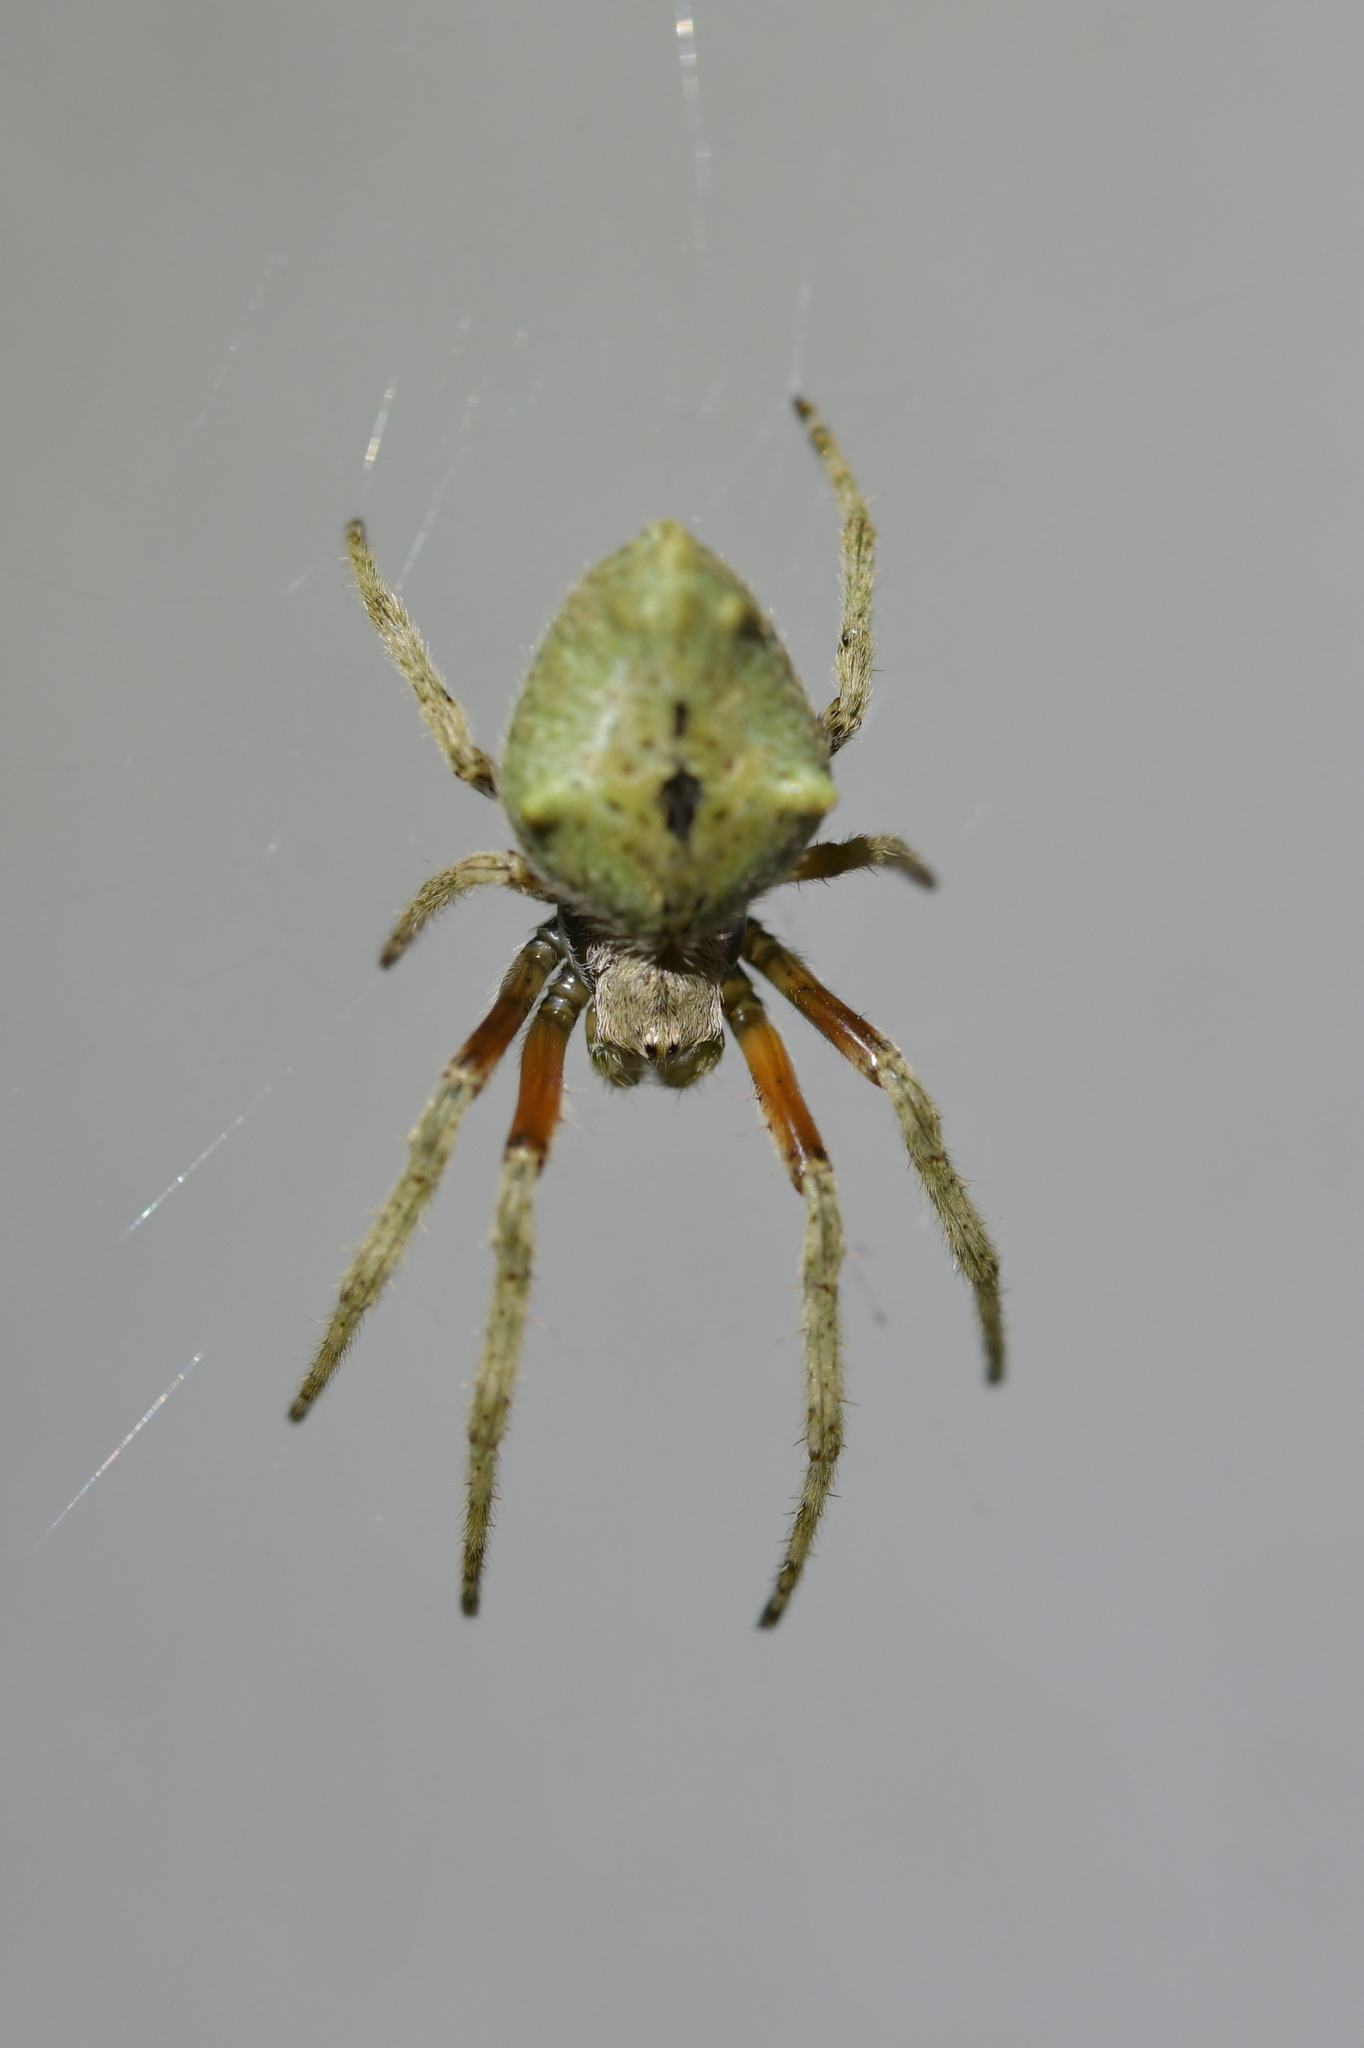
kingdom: Animalia
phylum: Arthropoda
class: Arachnida
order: Araneae
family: Araneidae
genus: Eriophora
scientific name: Eriophora pustulosa
